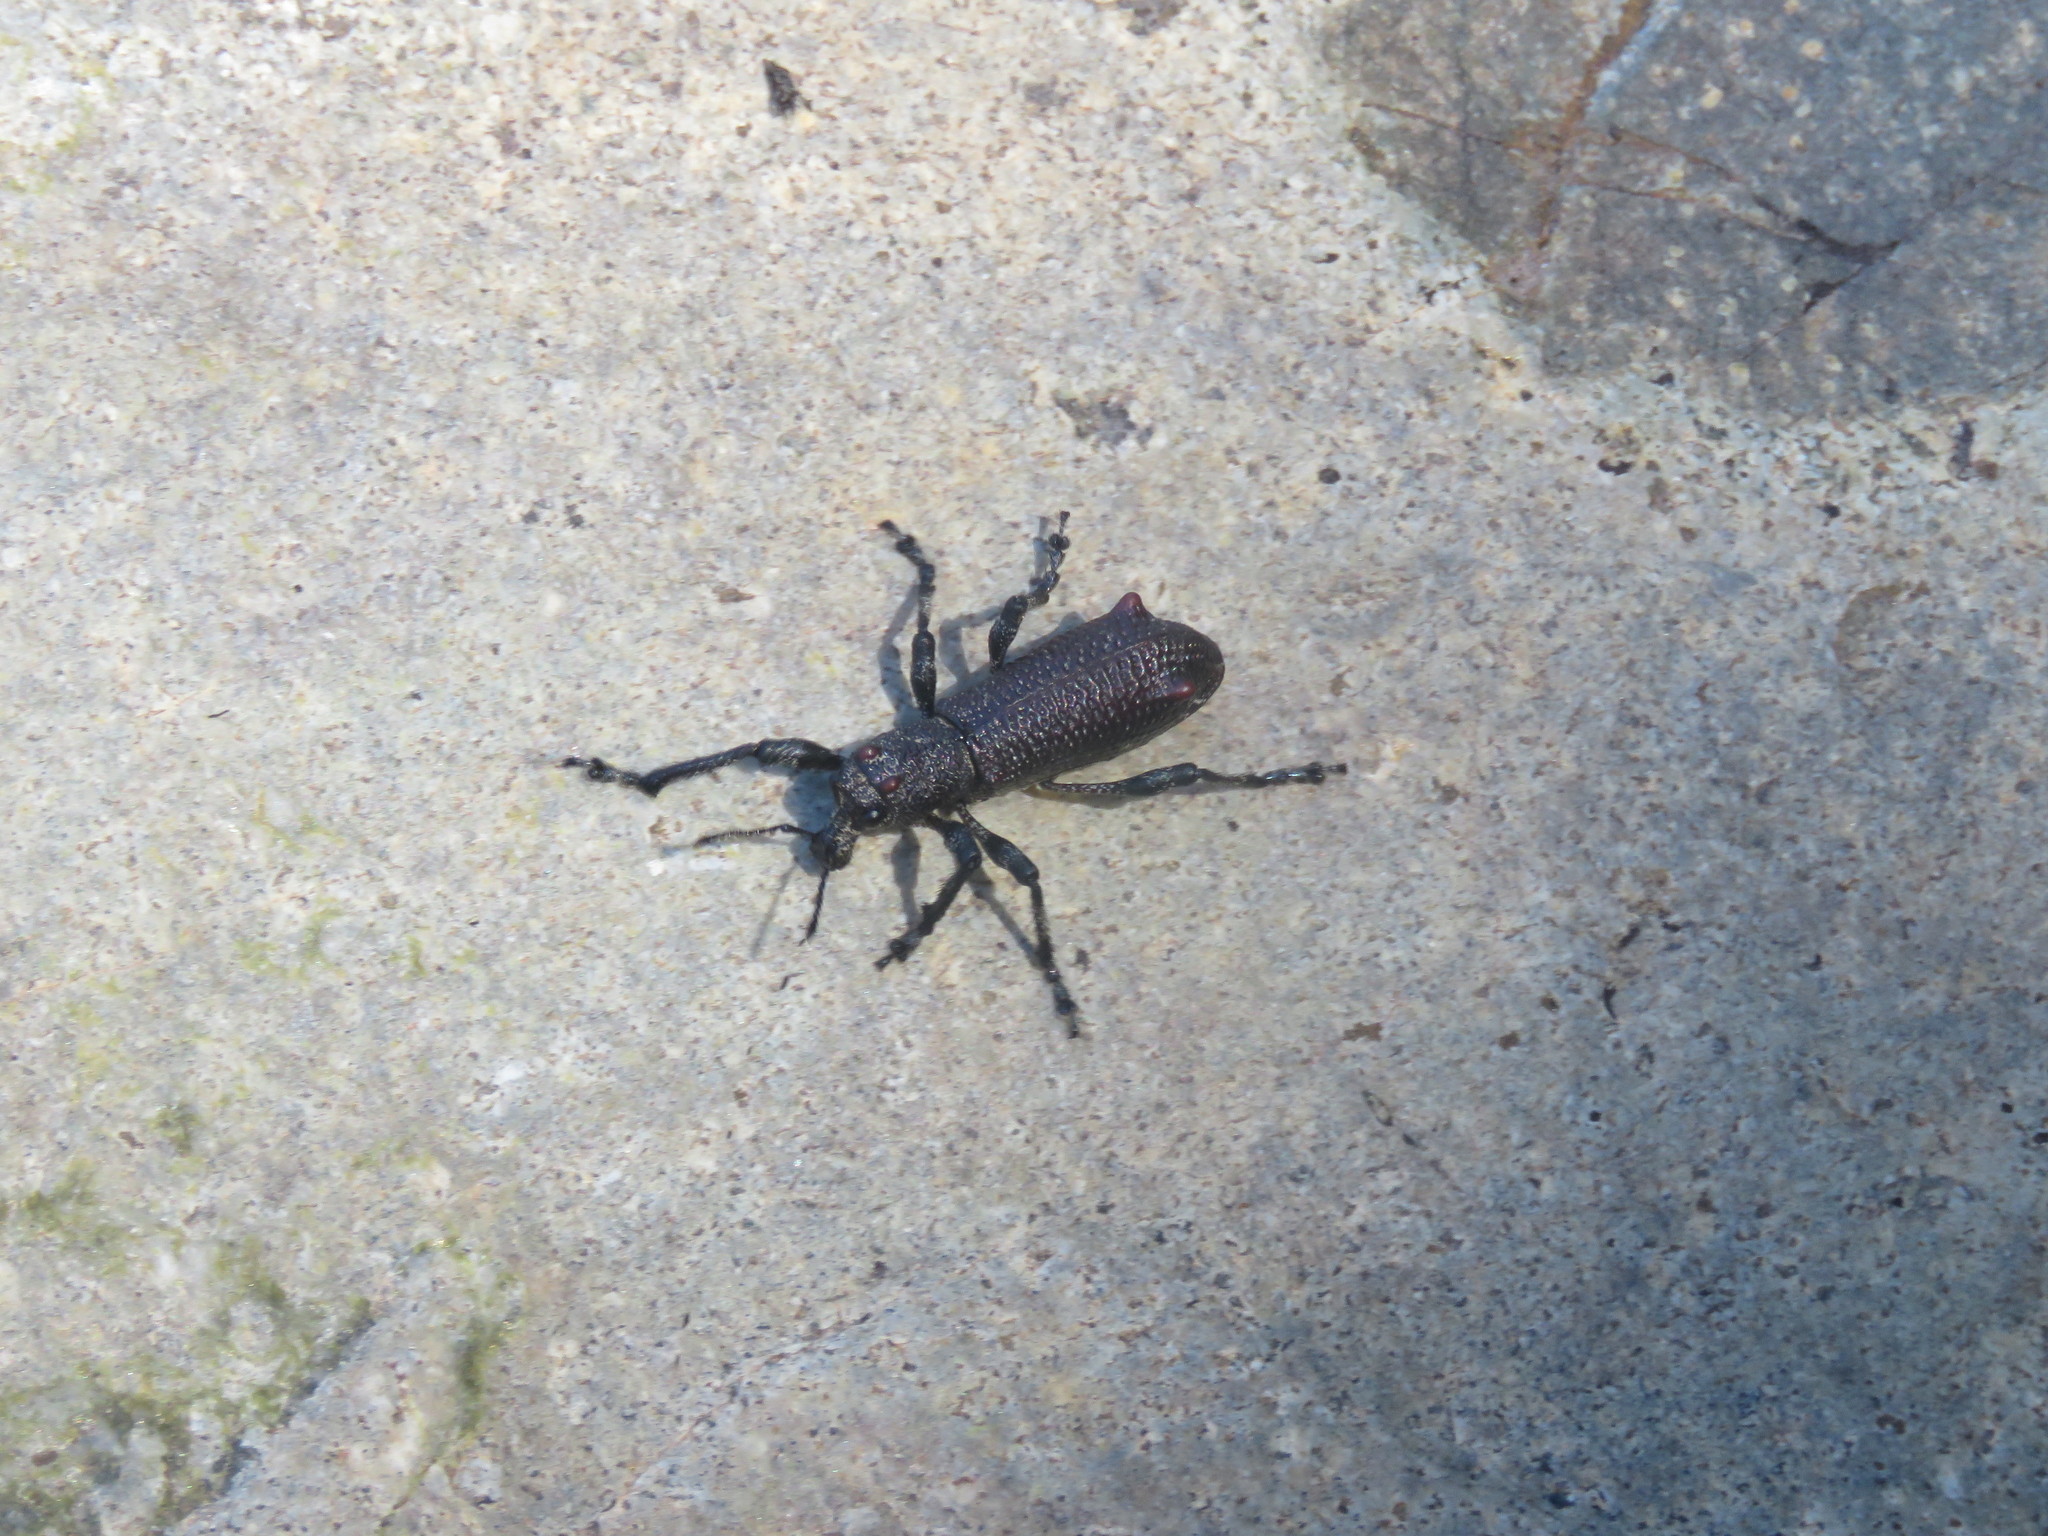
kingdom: Animalia
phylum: Arthropoda
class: Insecta
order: Coleoptera
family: Curculionidae
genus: Aegorhinus
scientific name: Aegorhinus vitulus
